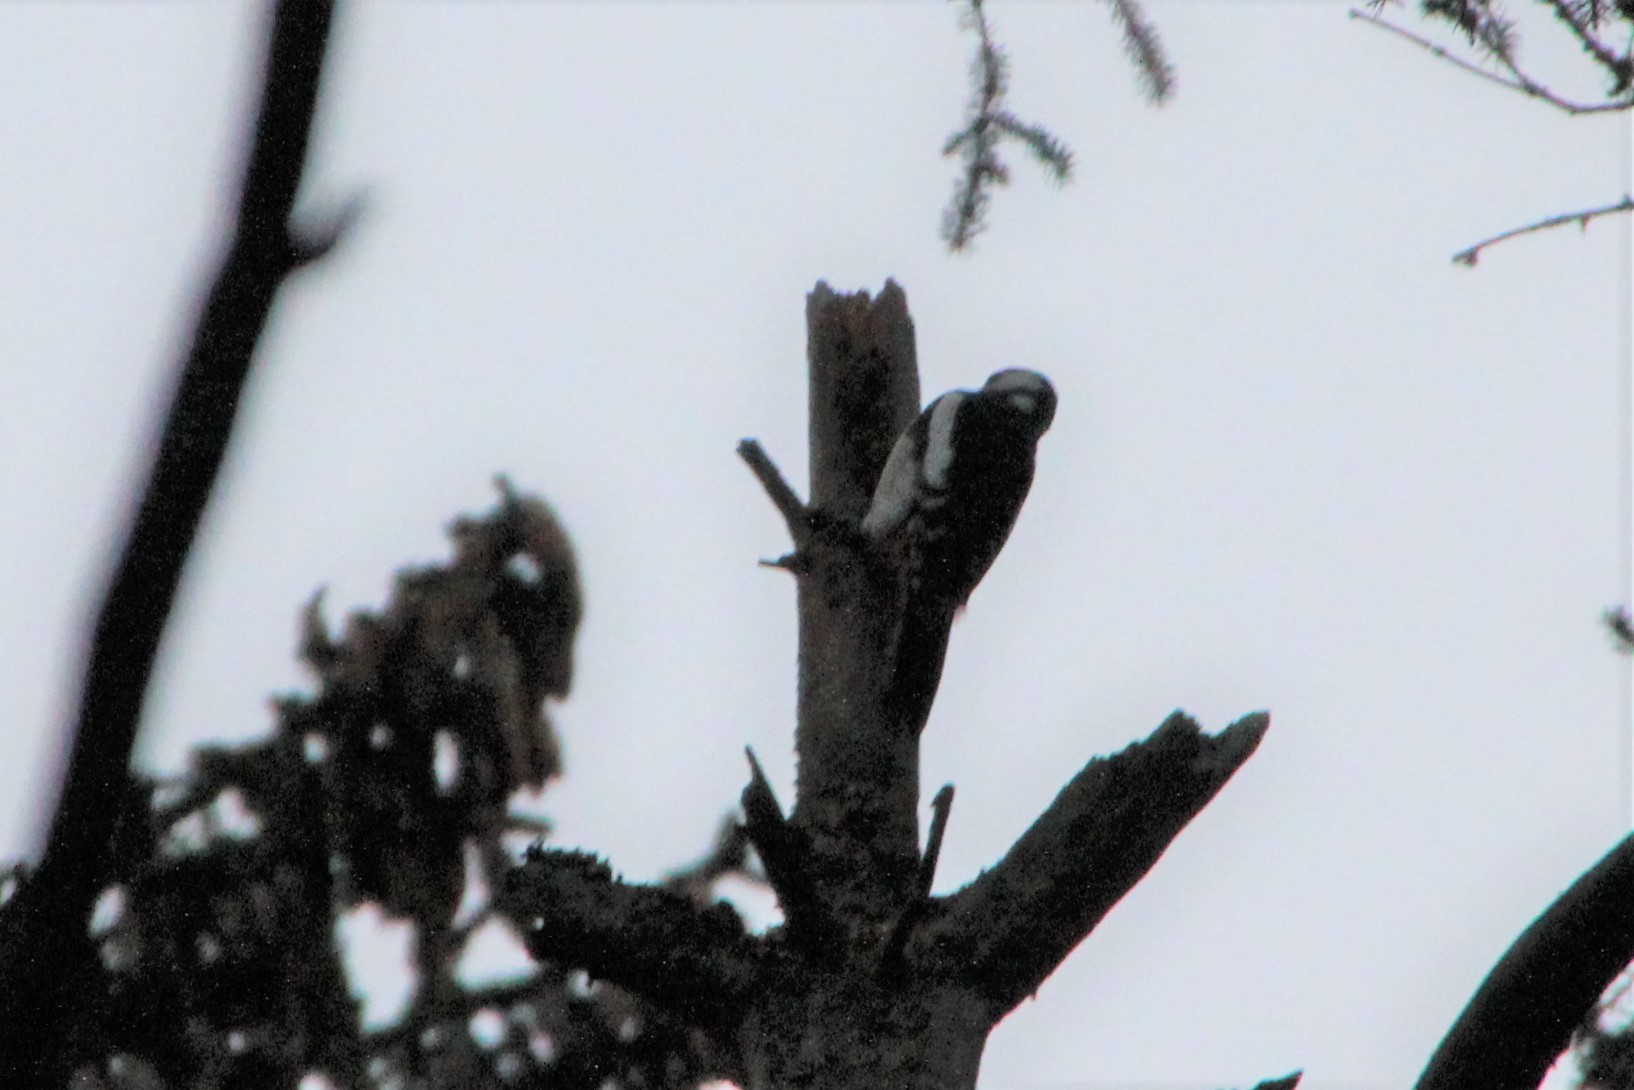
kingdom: Animalia
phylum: Chordata
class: Aves
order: Piciformes
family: Picidae
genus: Dendrocopos
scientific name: Dendrocopos major
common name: Great spotted woodpecker
